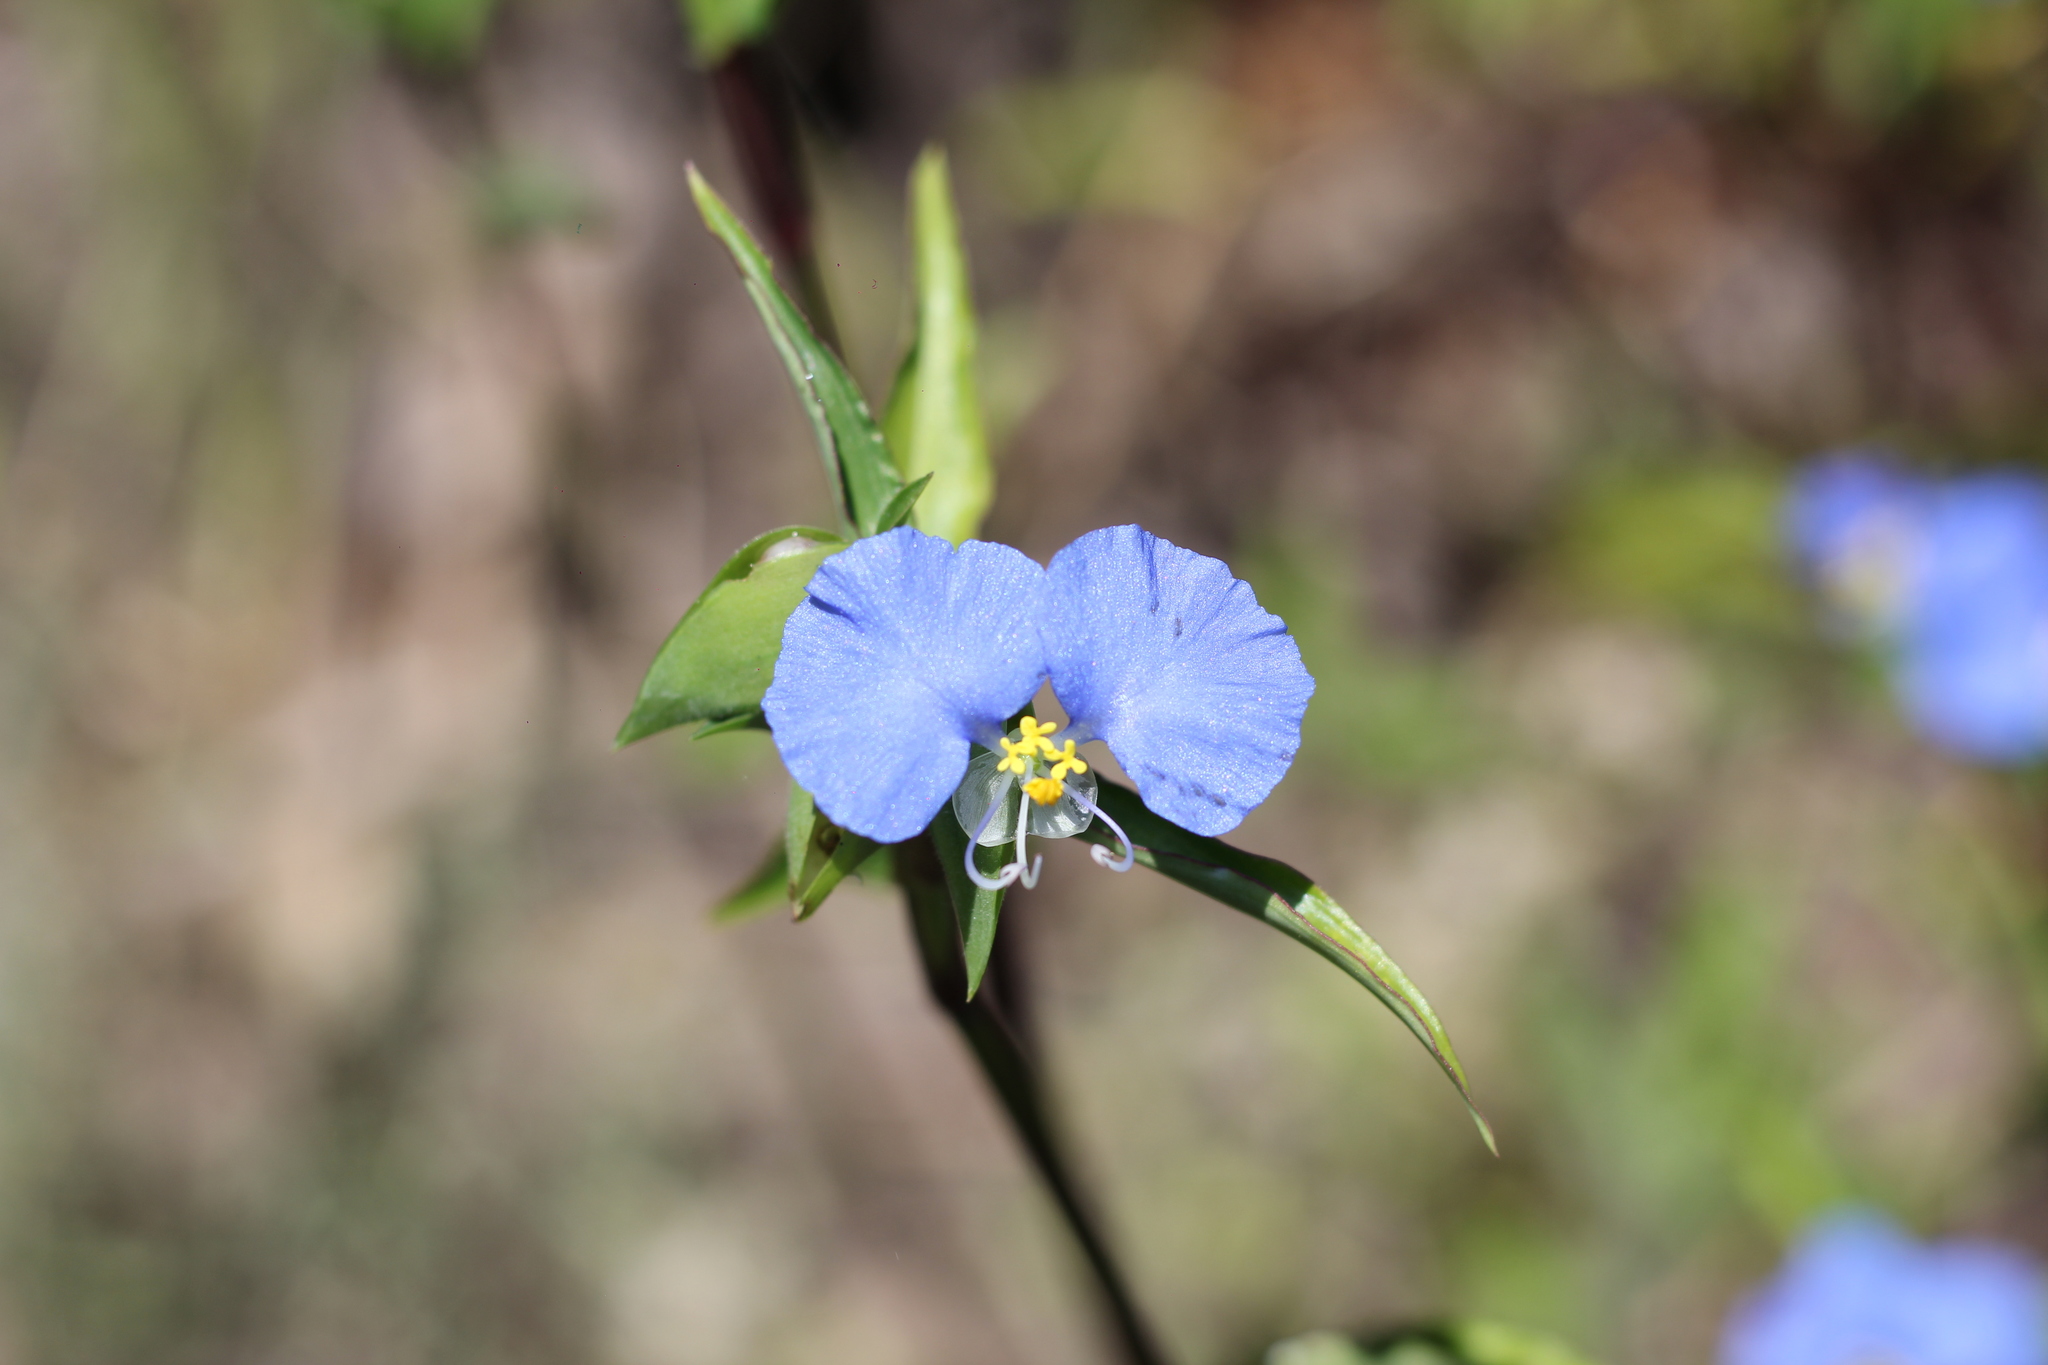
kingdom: Plantae
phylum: Tracheophyta
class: Liliopsida
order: Commelinales
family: Commelinaceae
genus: Commelina
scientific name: Commelina erecta
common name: Blousel blommetjie
